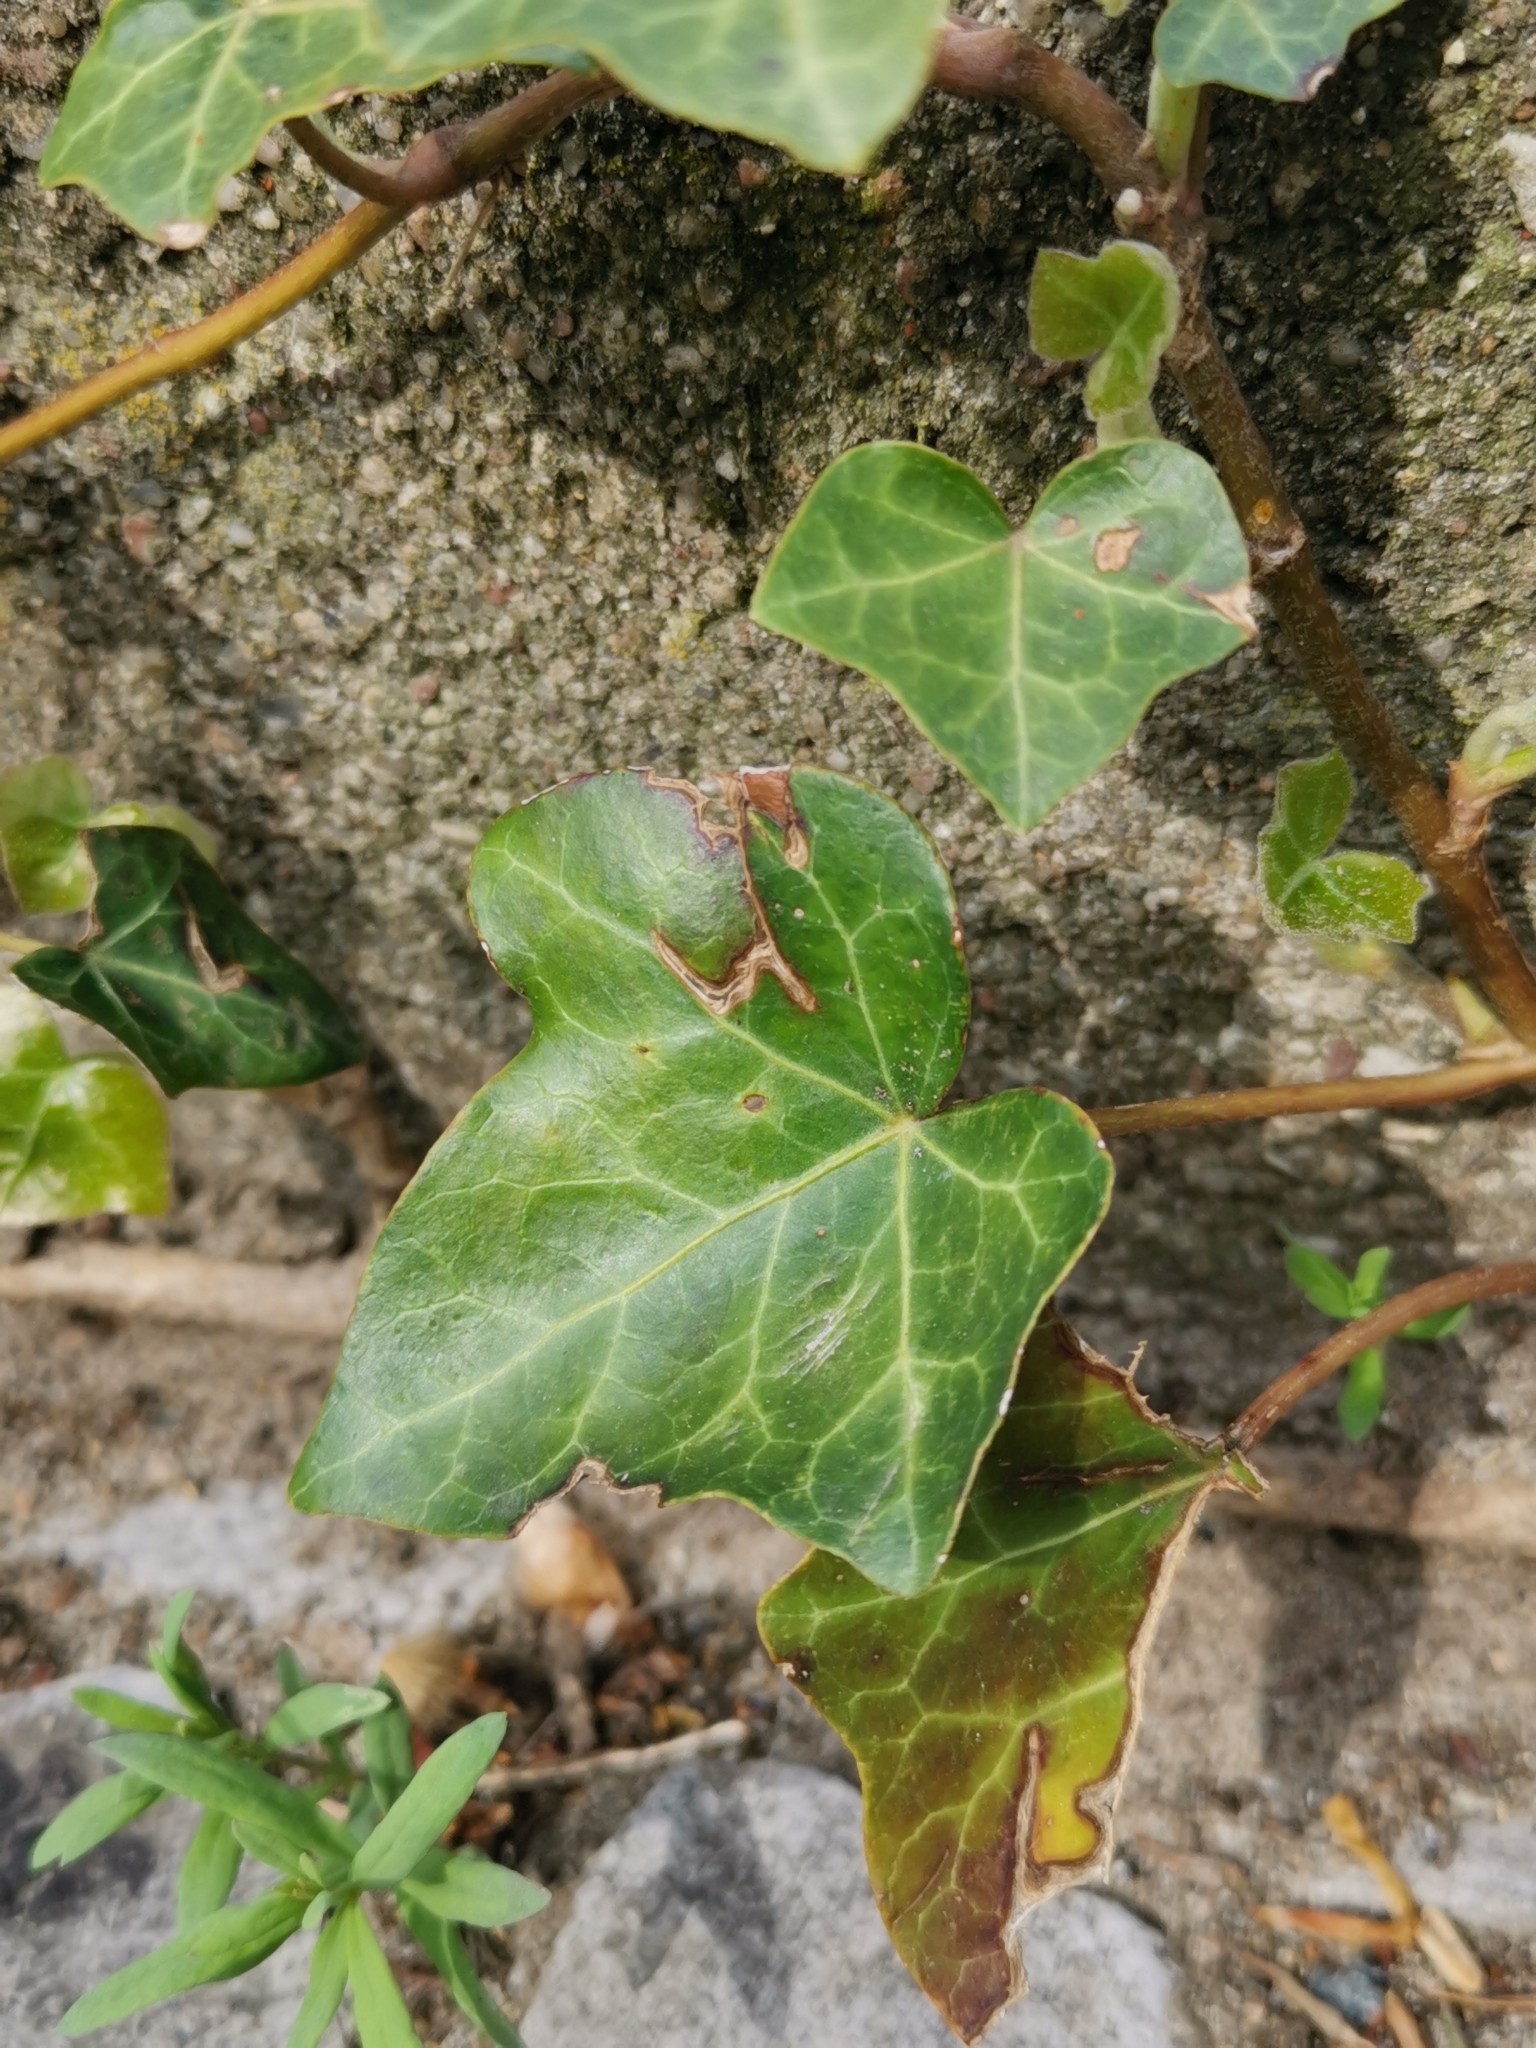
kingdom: Plantae
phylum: Tracheophyta
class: Magnoliopsida
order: Apiales
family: Araliaceae
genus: Hedera
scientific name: Hedera helix
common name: Ivy
